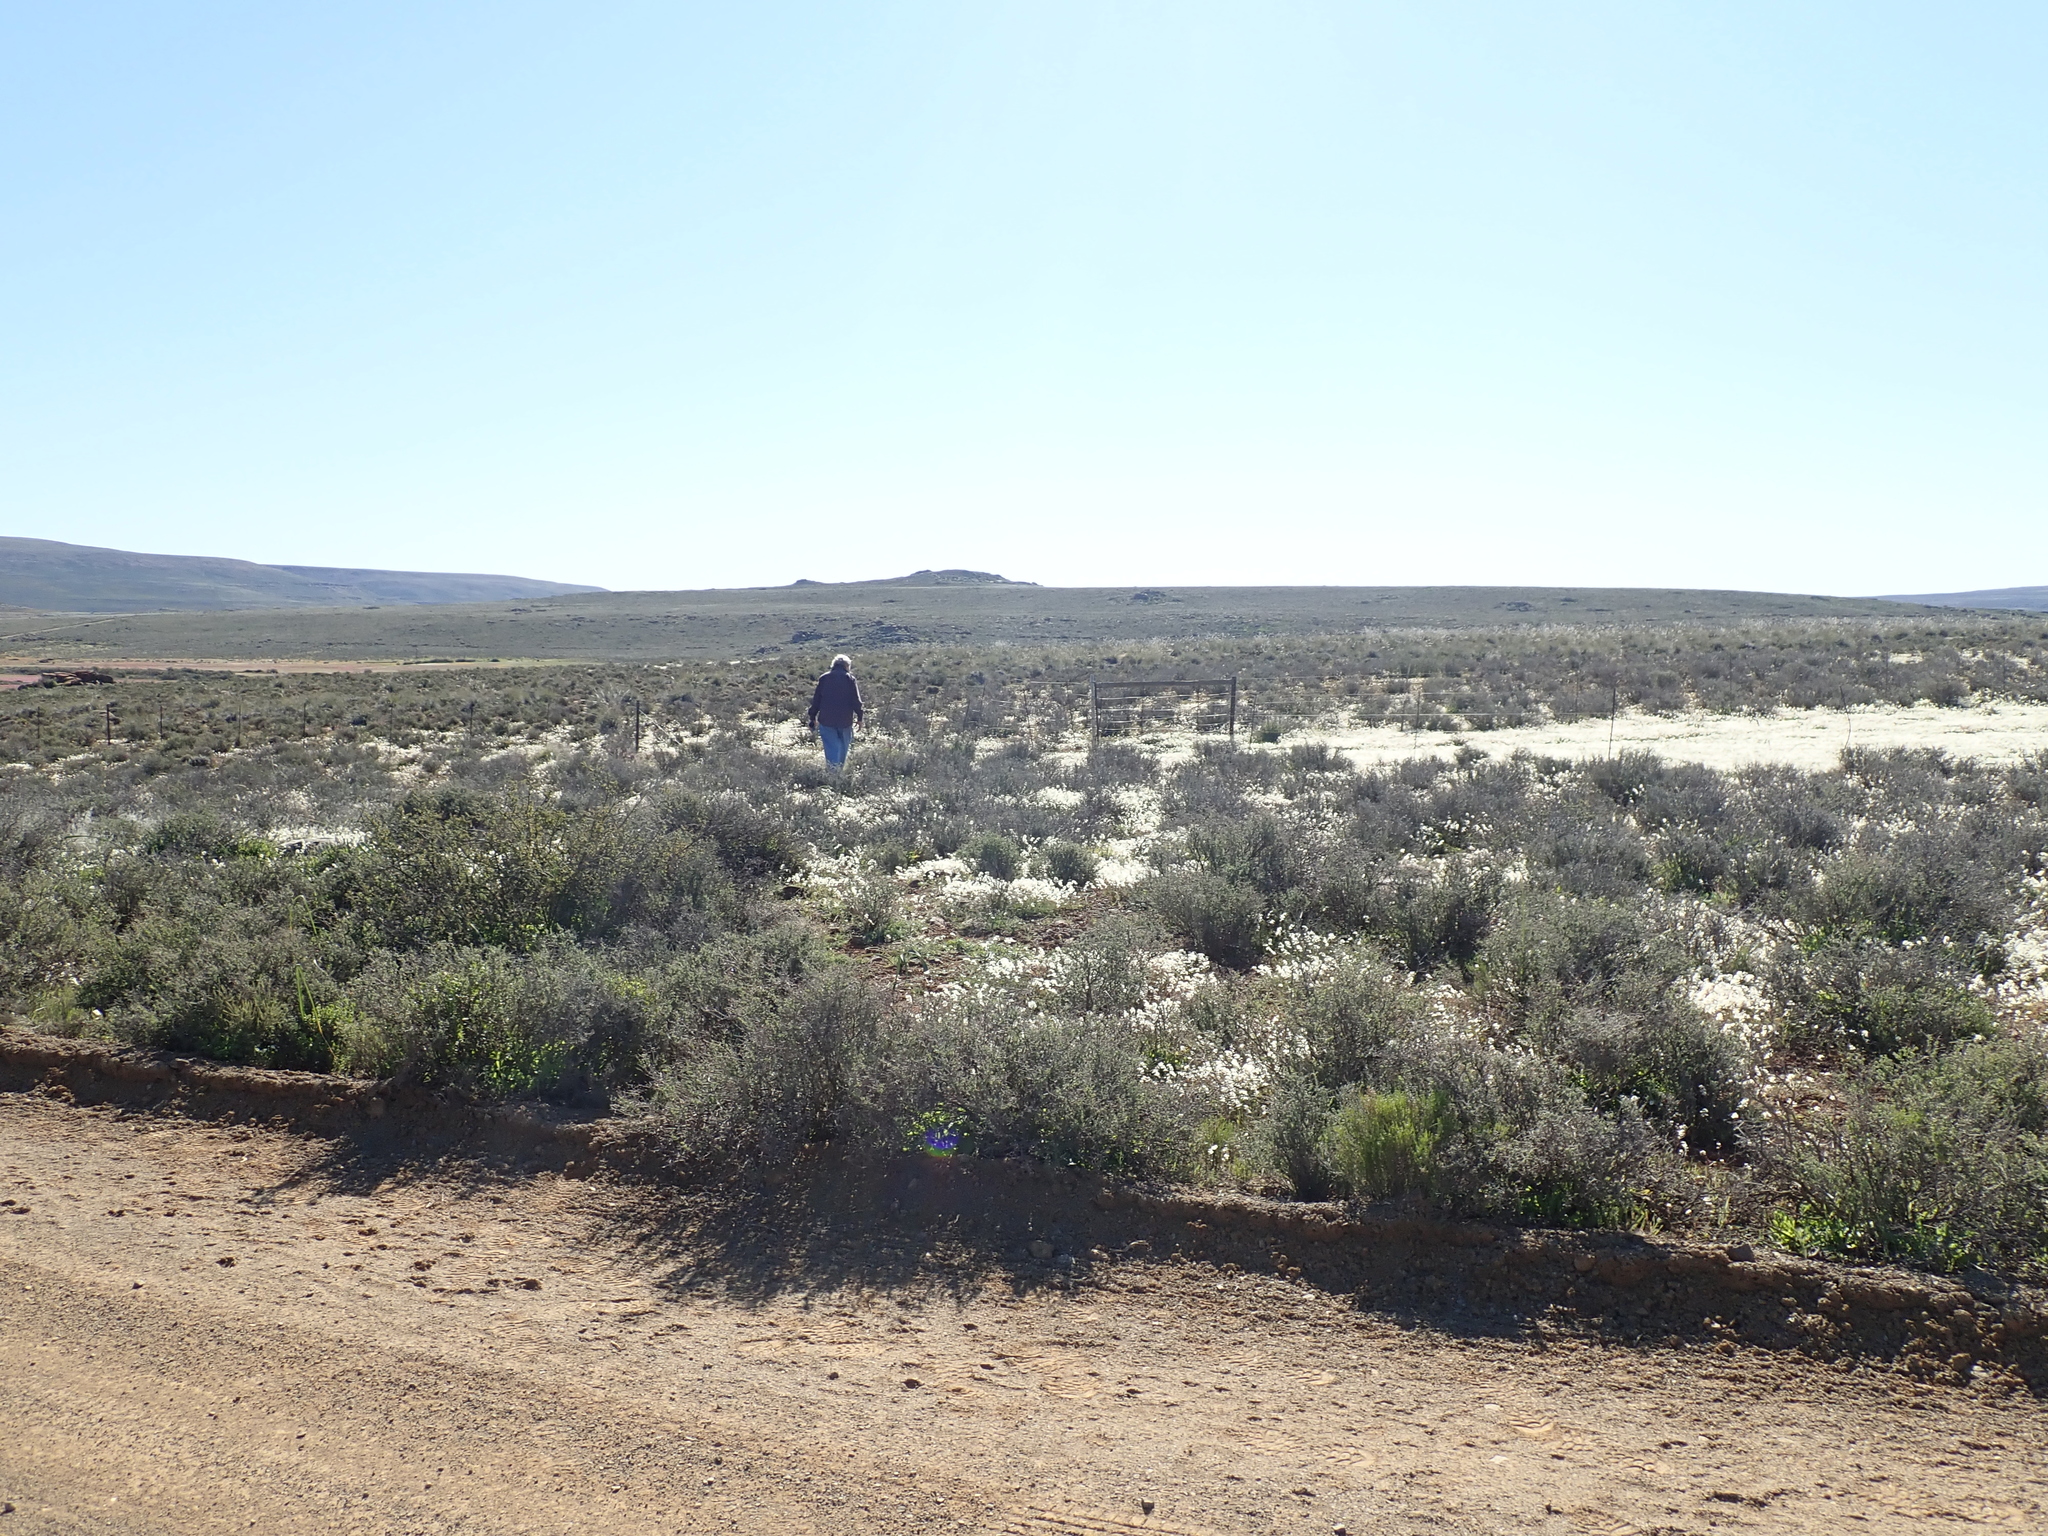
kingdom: Plantae
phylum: Tracheophyta
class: Magnoliopsida
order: Brassicales
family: Brassicaceae
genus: Heliophila
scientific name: Heliophila pubescens
